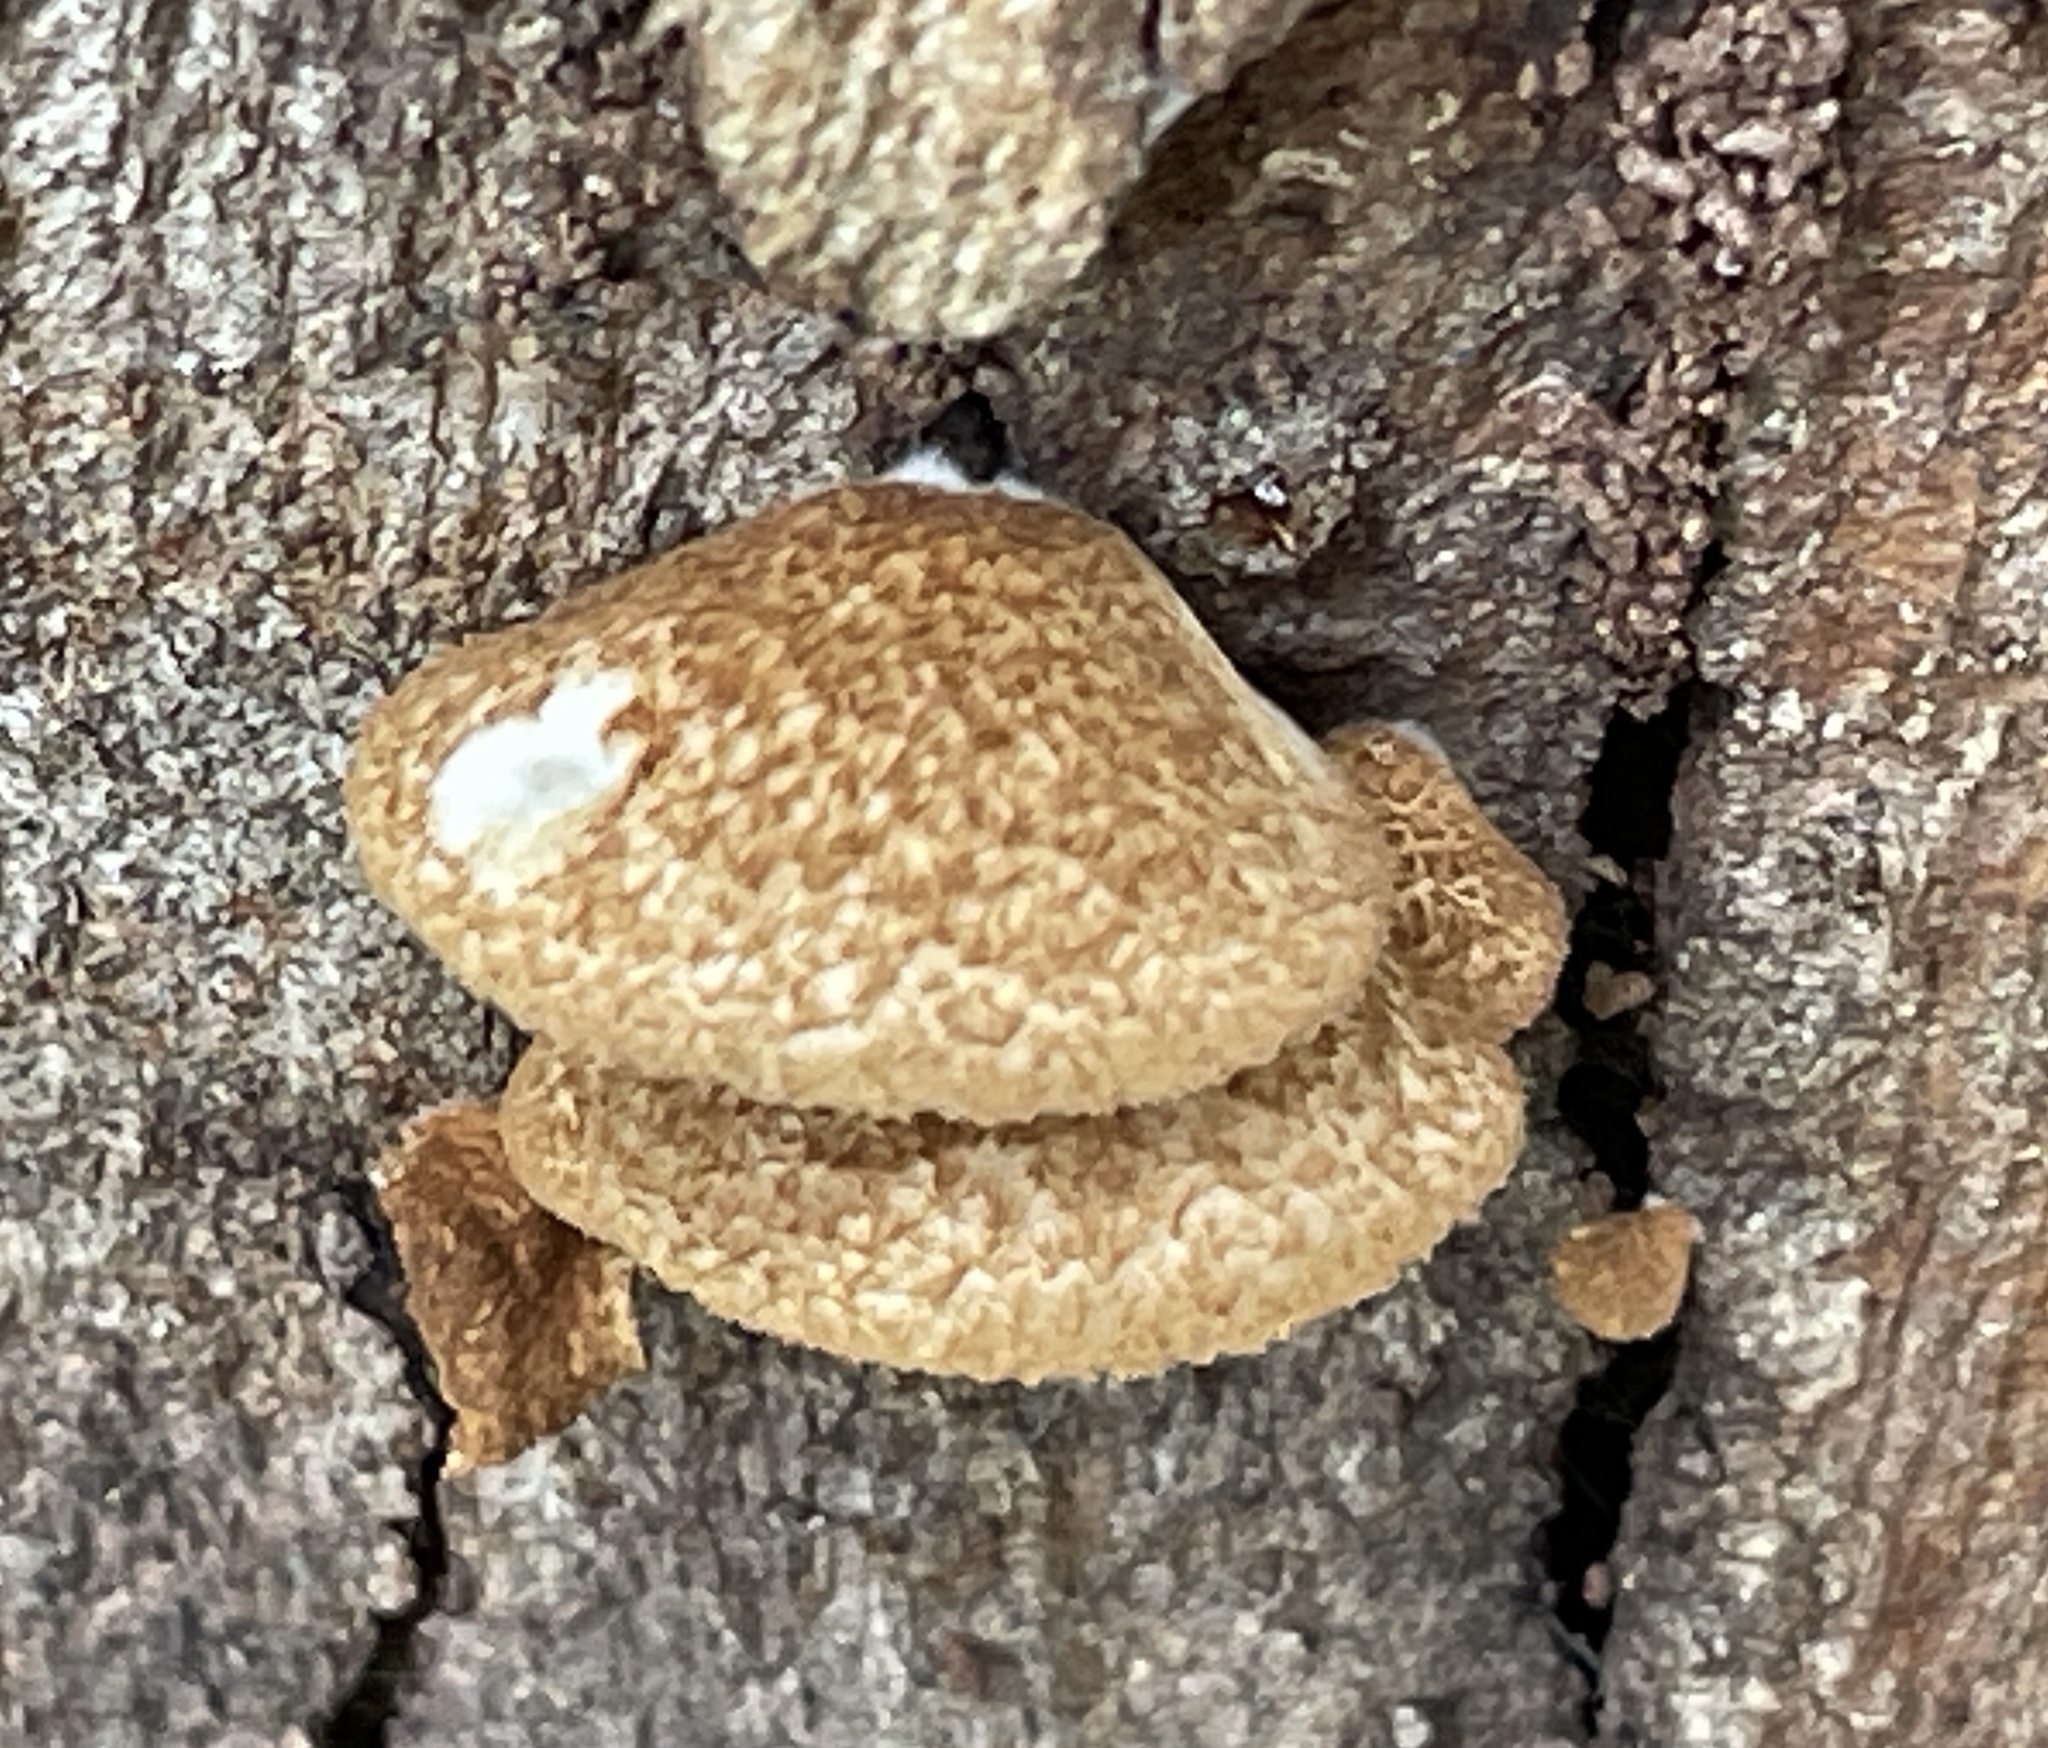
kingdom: Fungi
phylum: Basidiomycota
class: Agaricomycetes
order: Agaricales
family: Crepidotaceae
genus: Crepidotus
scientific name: Crepidotus calolepis
